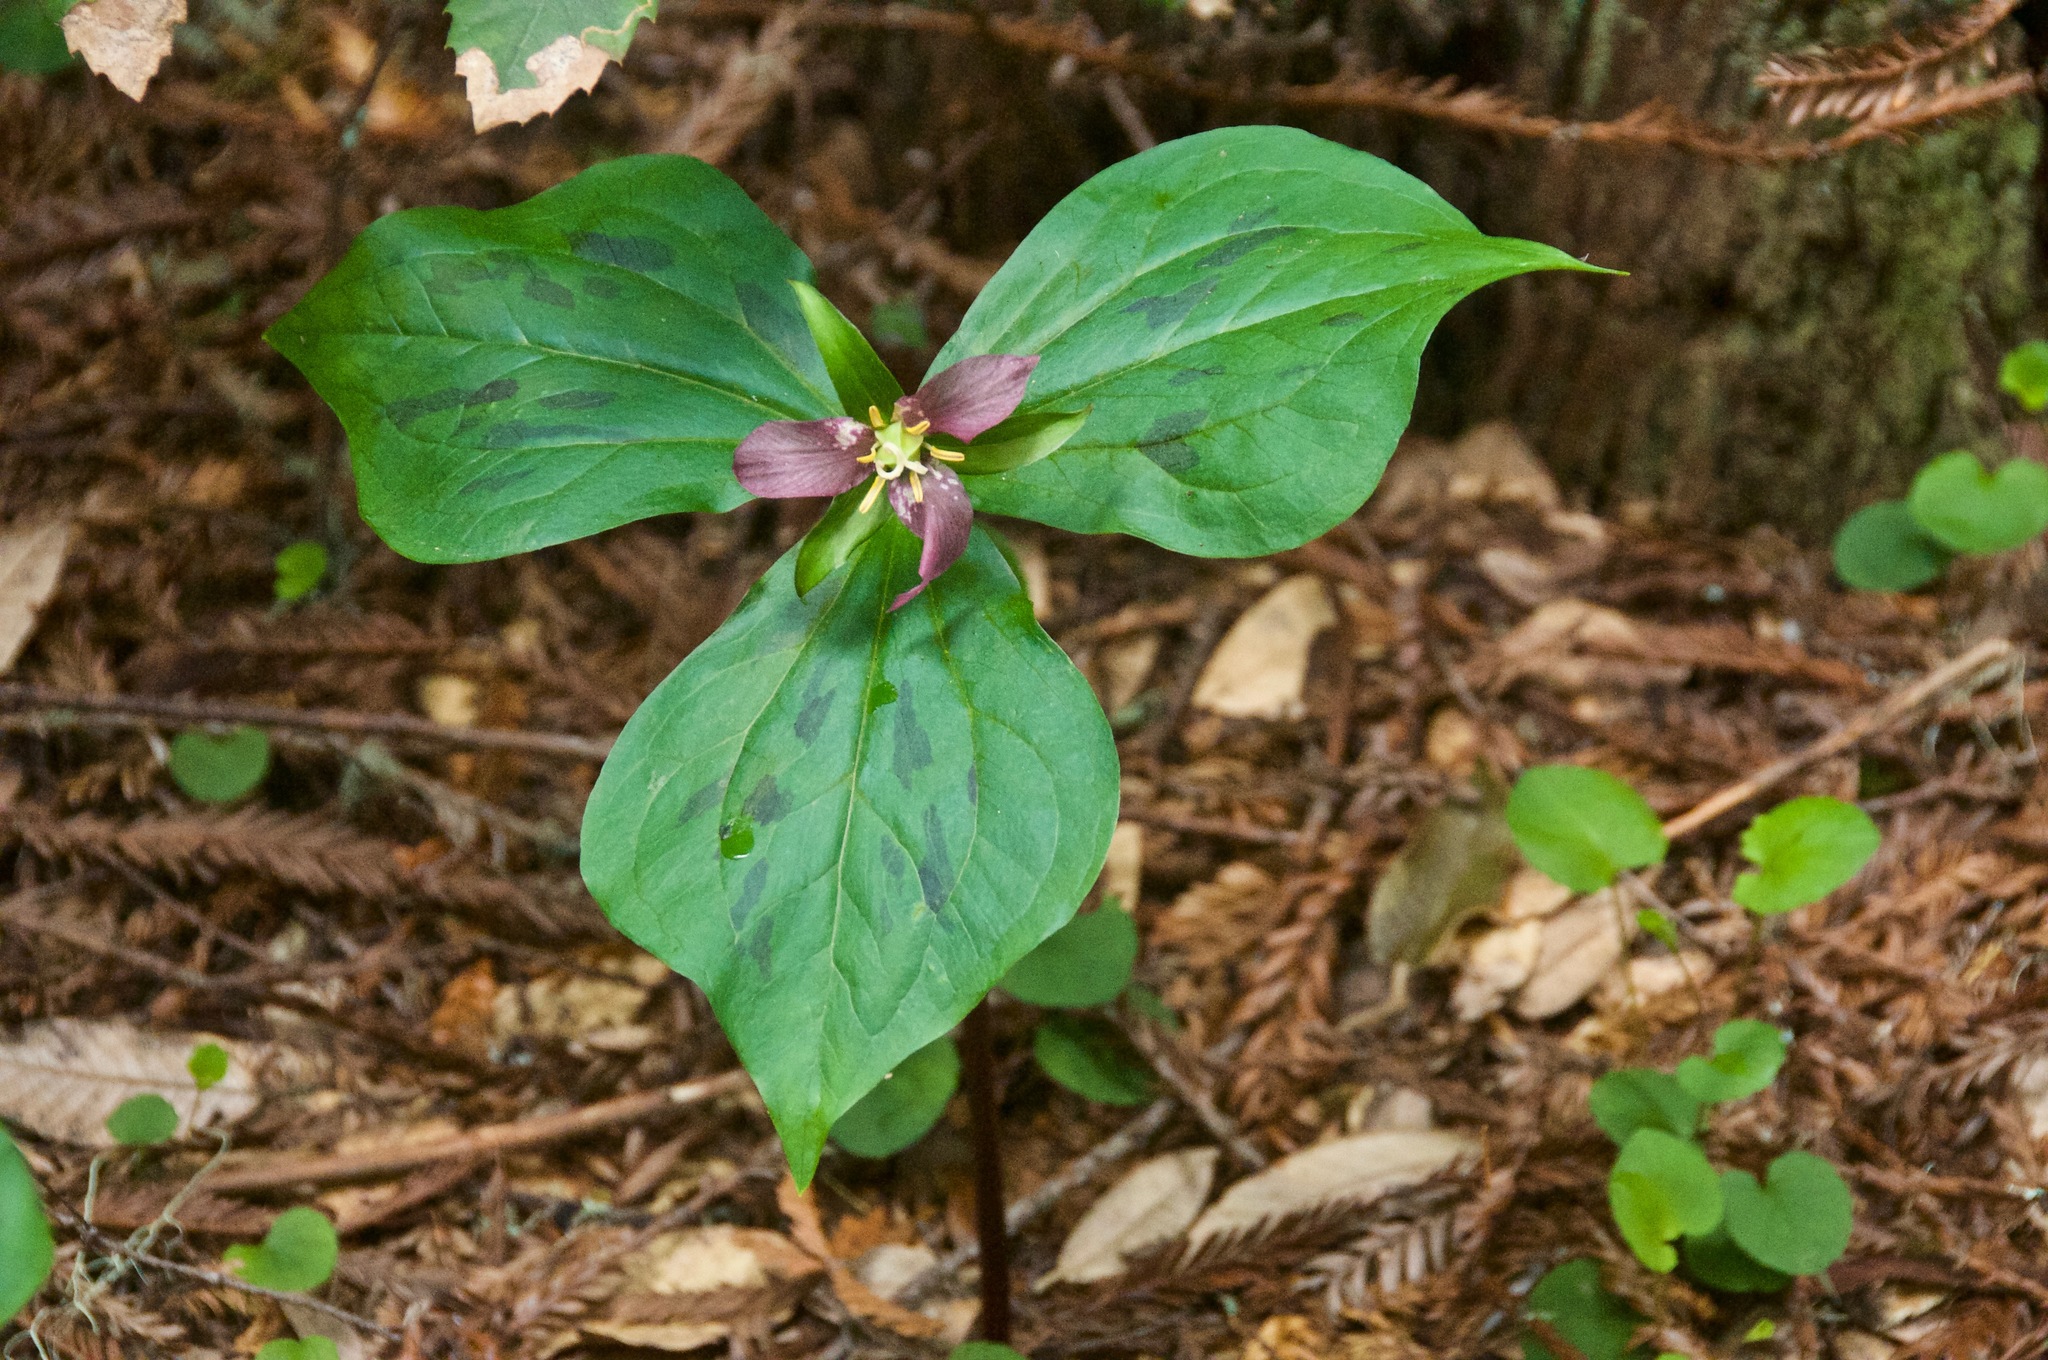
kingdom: Plantae
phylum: Tracheophyta
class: Liliopsida
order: Liliales
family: Melanthiaceae
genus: Trillium
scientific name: Trillium ovatum
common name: Pacific trillium
